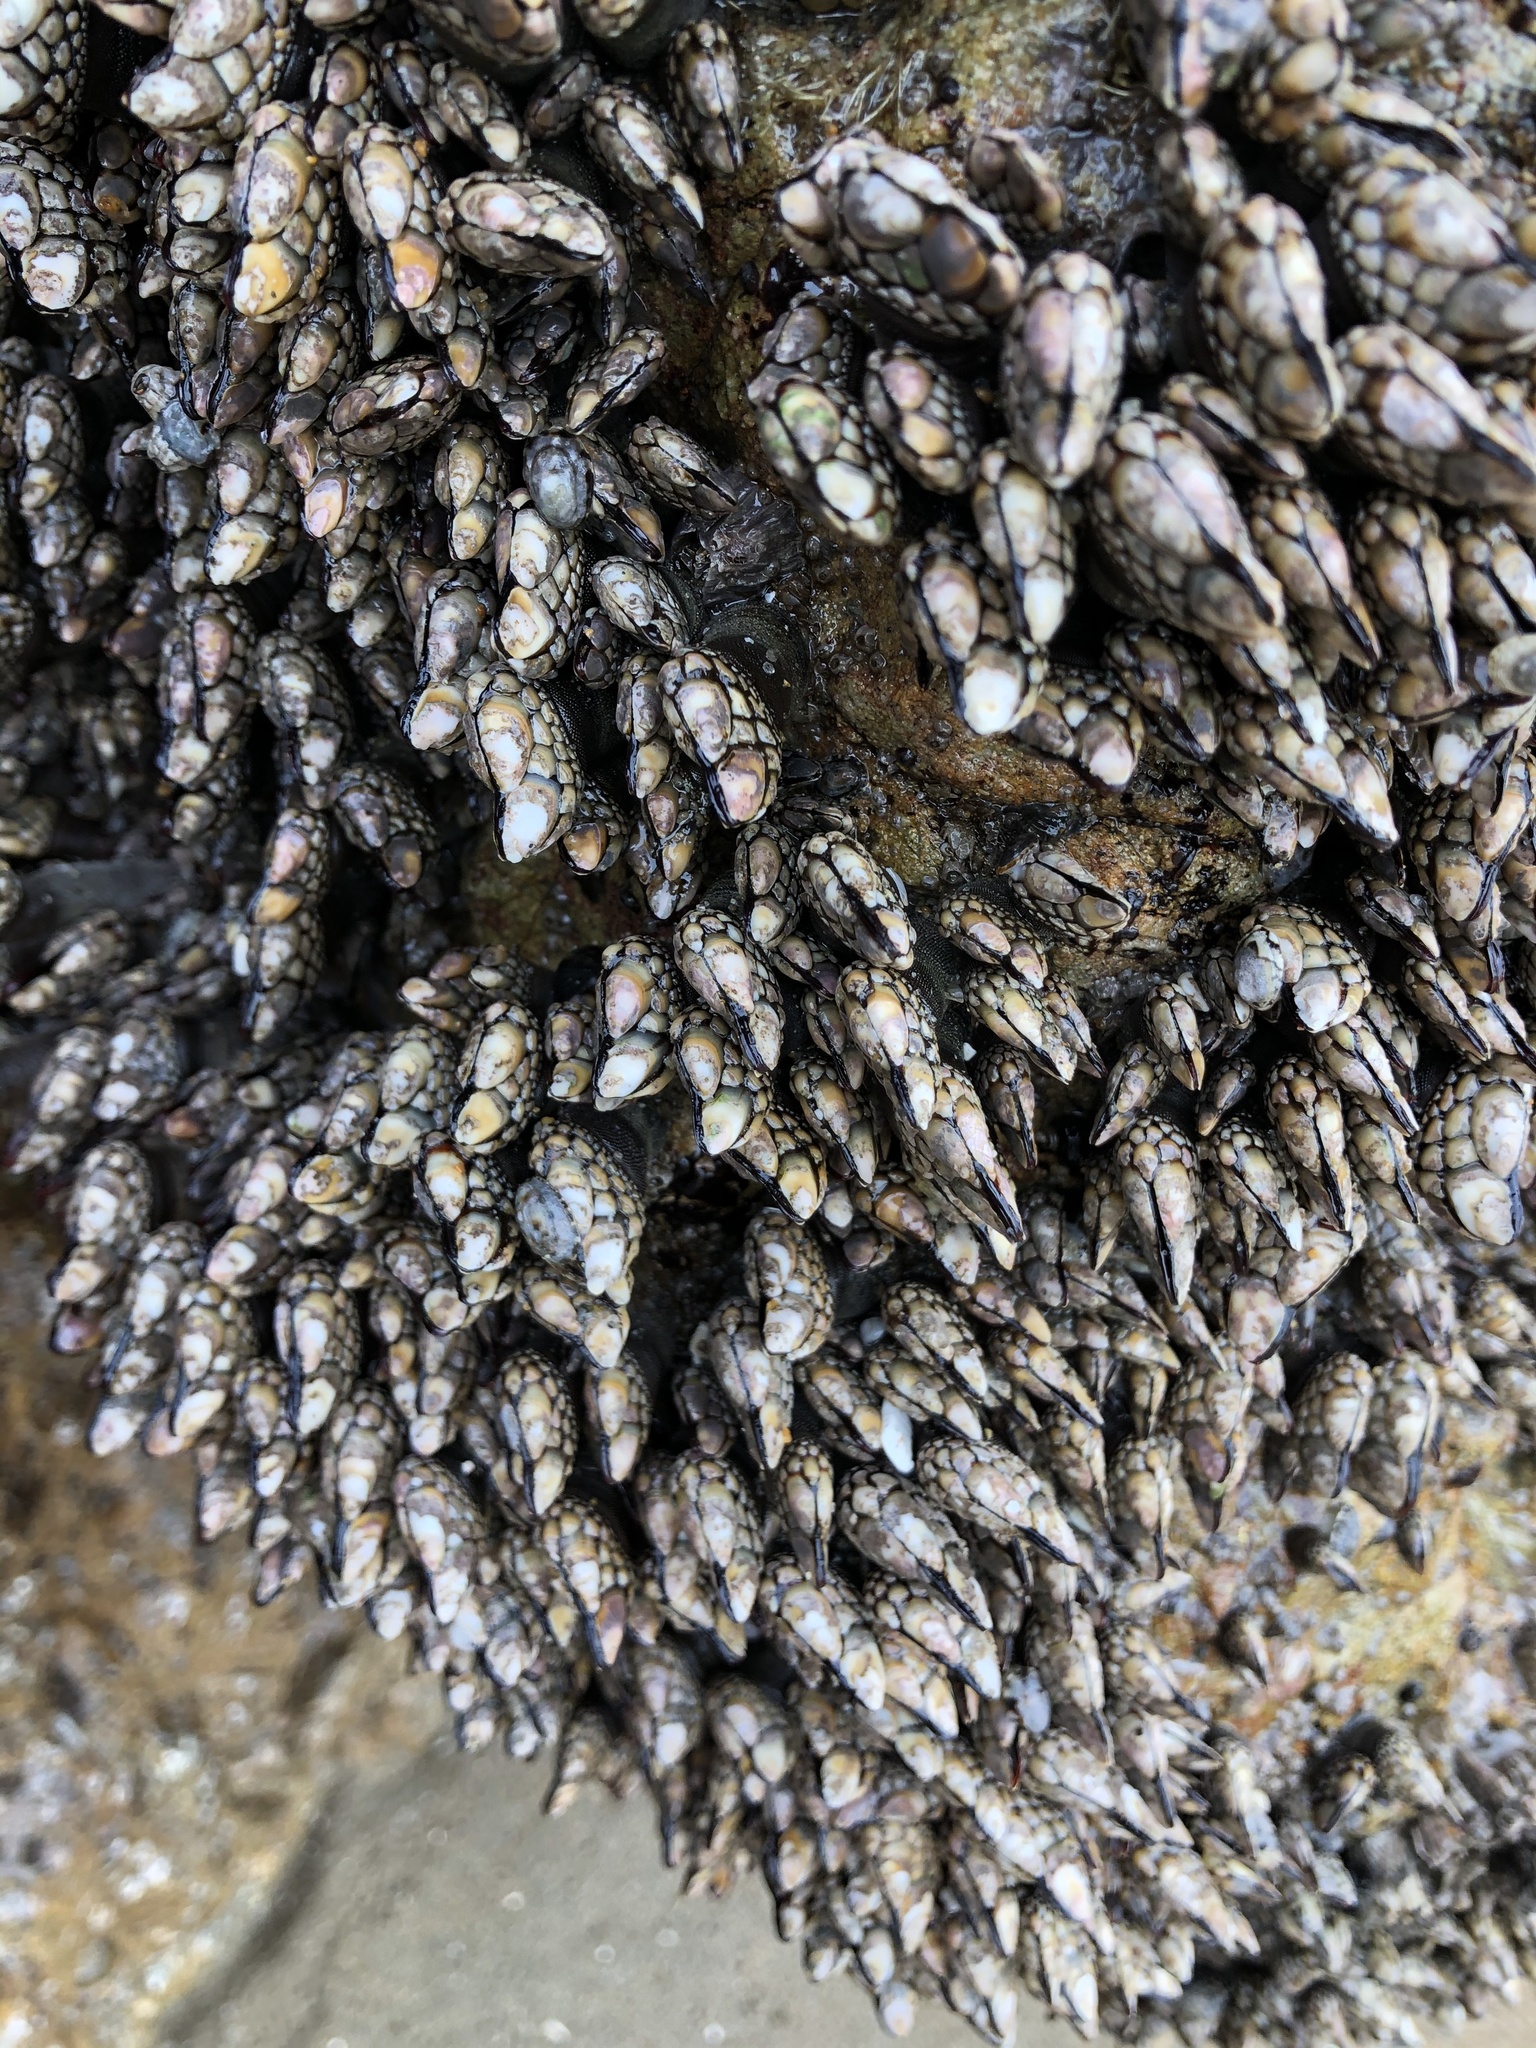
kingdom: Animalia
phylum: Arthropoda
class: Maxillopoda
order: Pedunculata
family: Pollicipedidae
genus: Pollicipes
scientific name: Pollicipes polymerus
